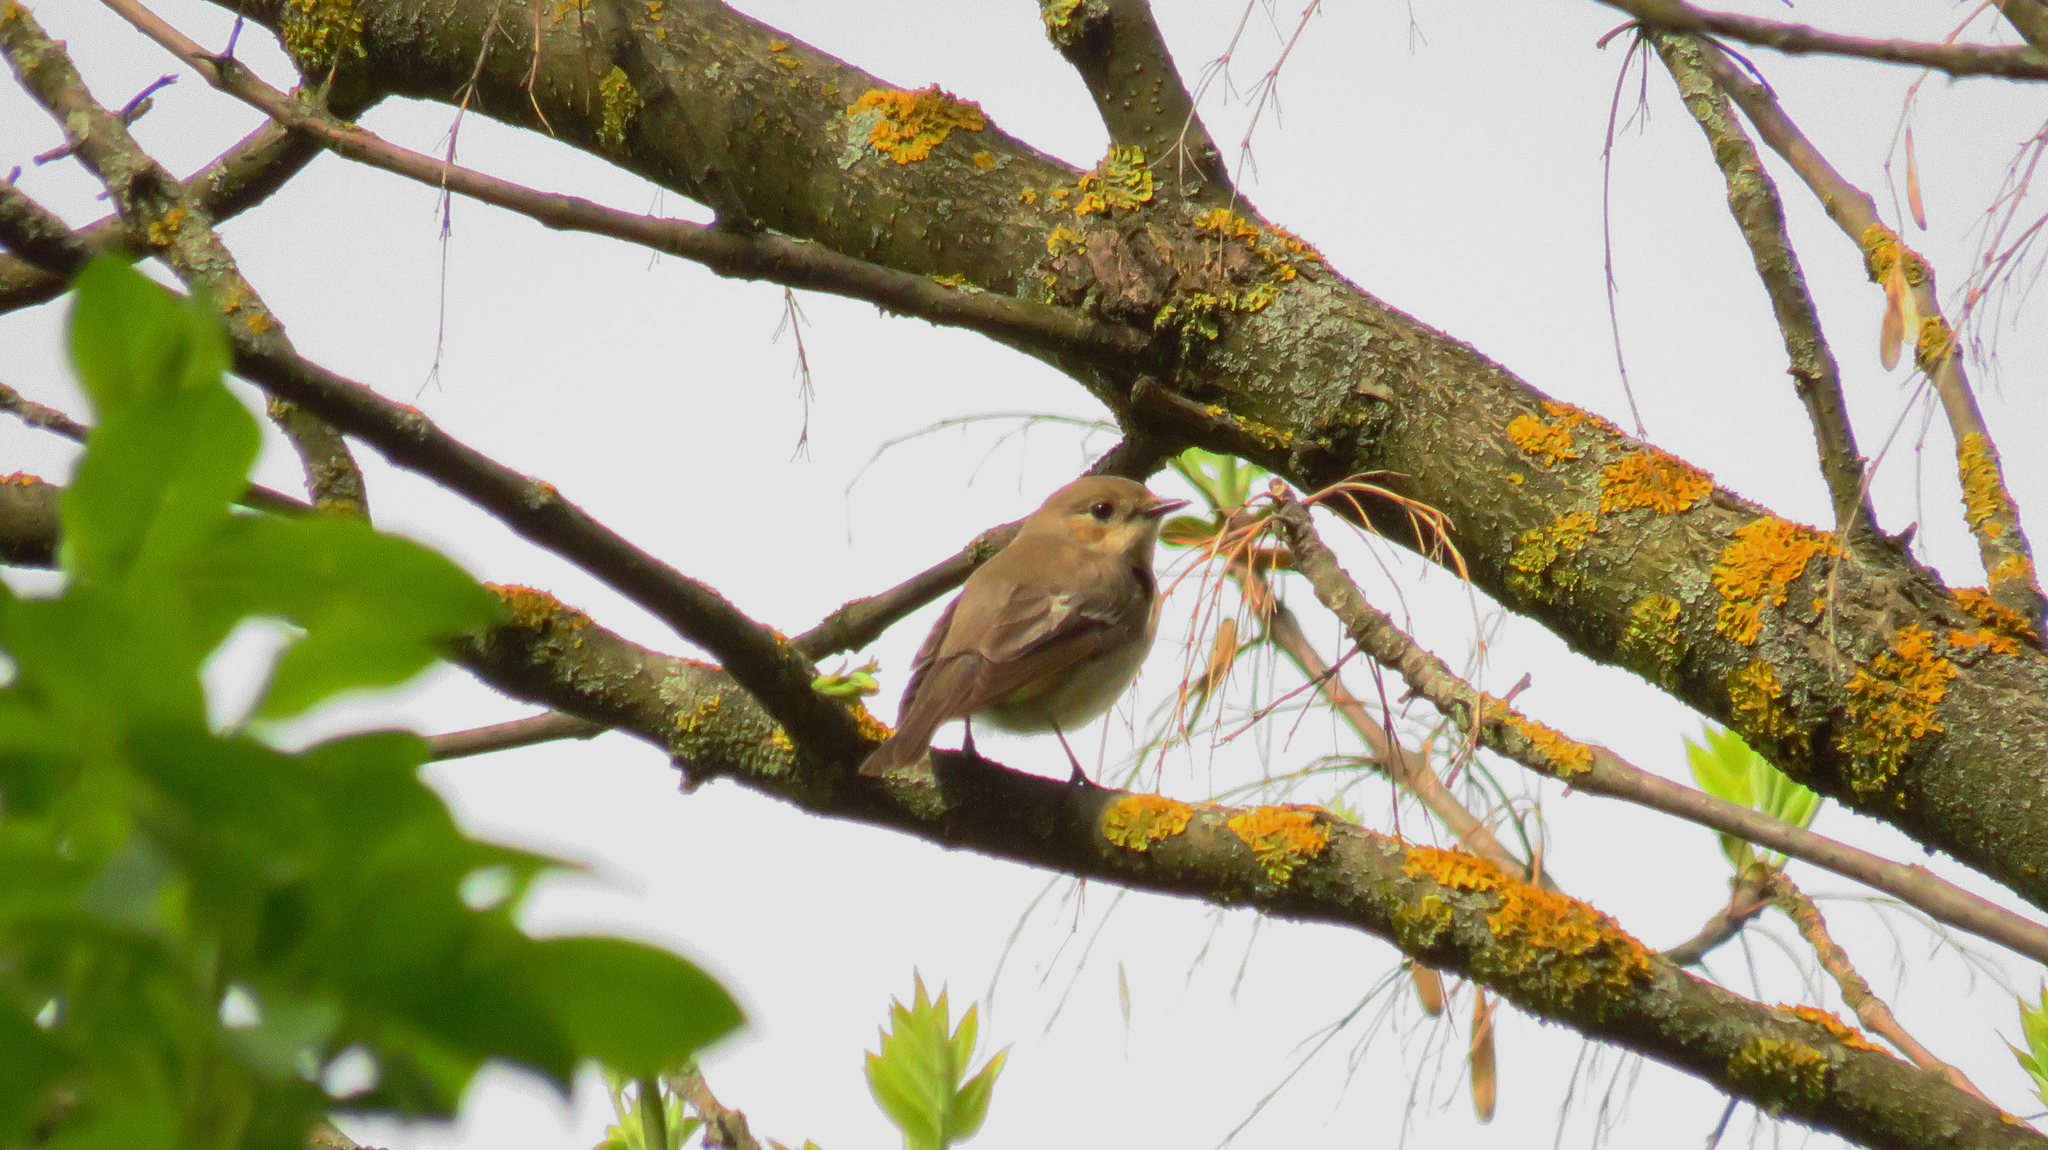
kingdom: Animalia
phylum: Chordata
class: Aves
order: Passeriformes
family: Muscicapidae
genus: Ficedula
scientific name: Ficedula hypoleuca
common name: European pied flycatcher
